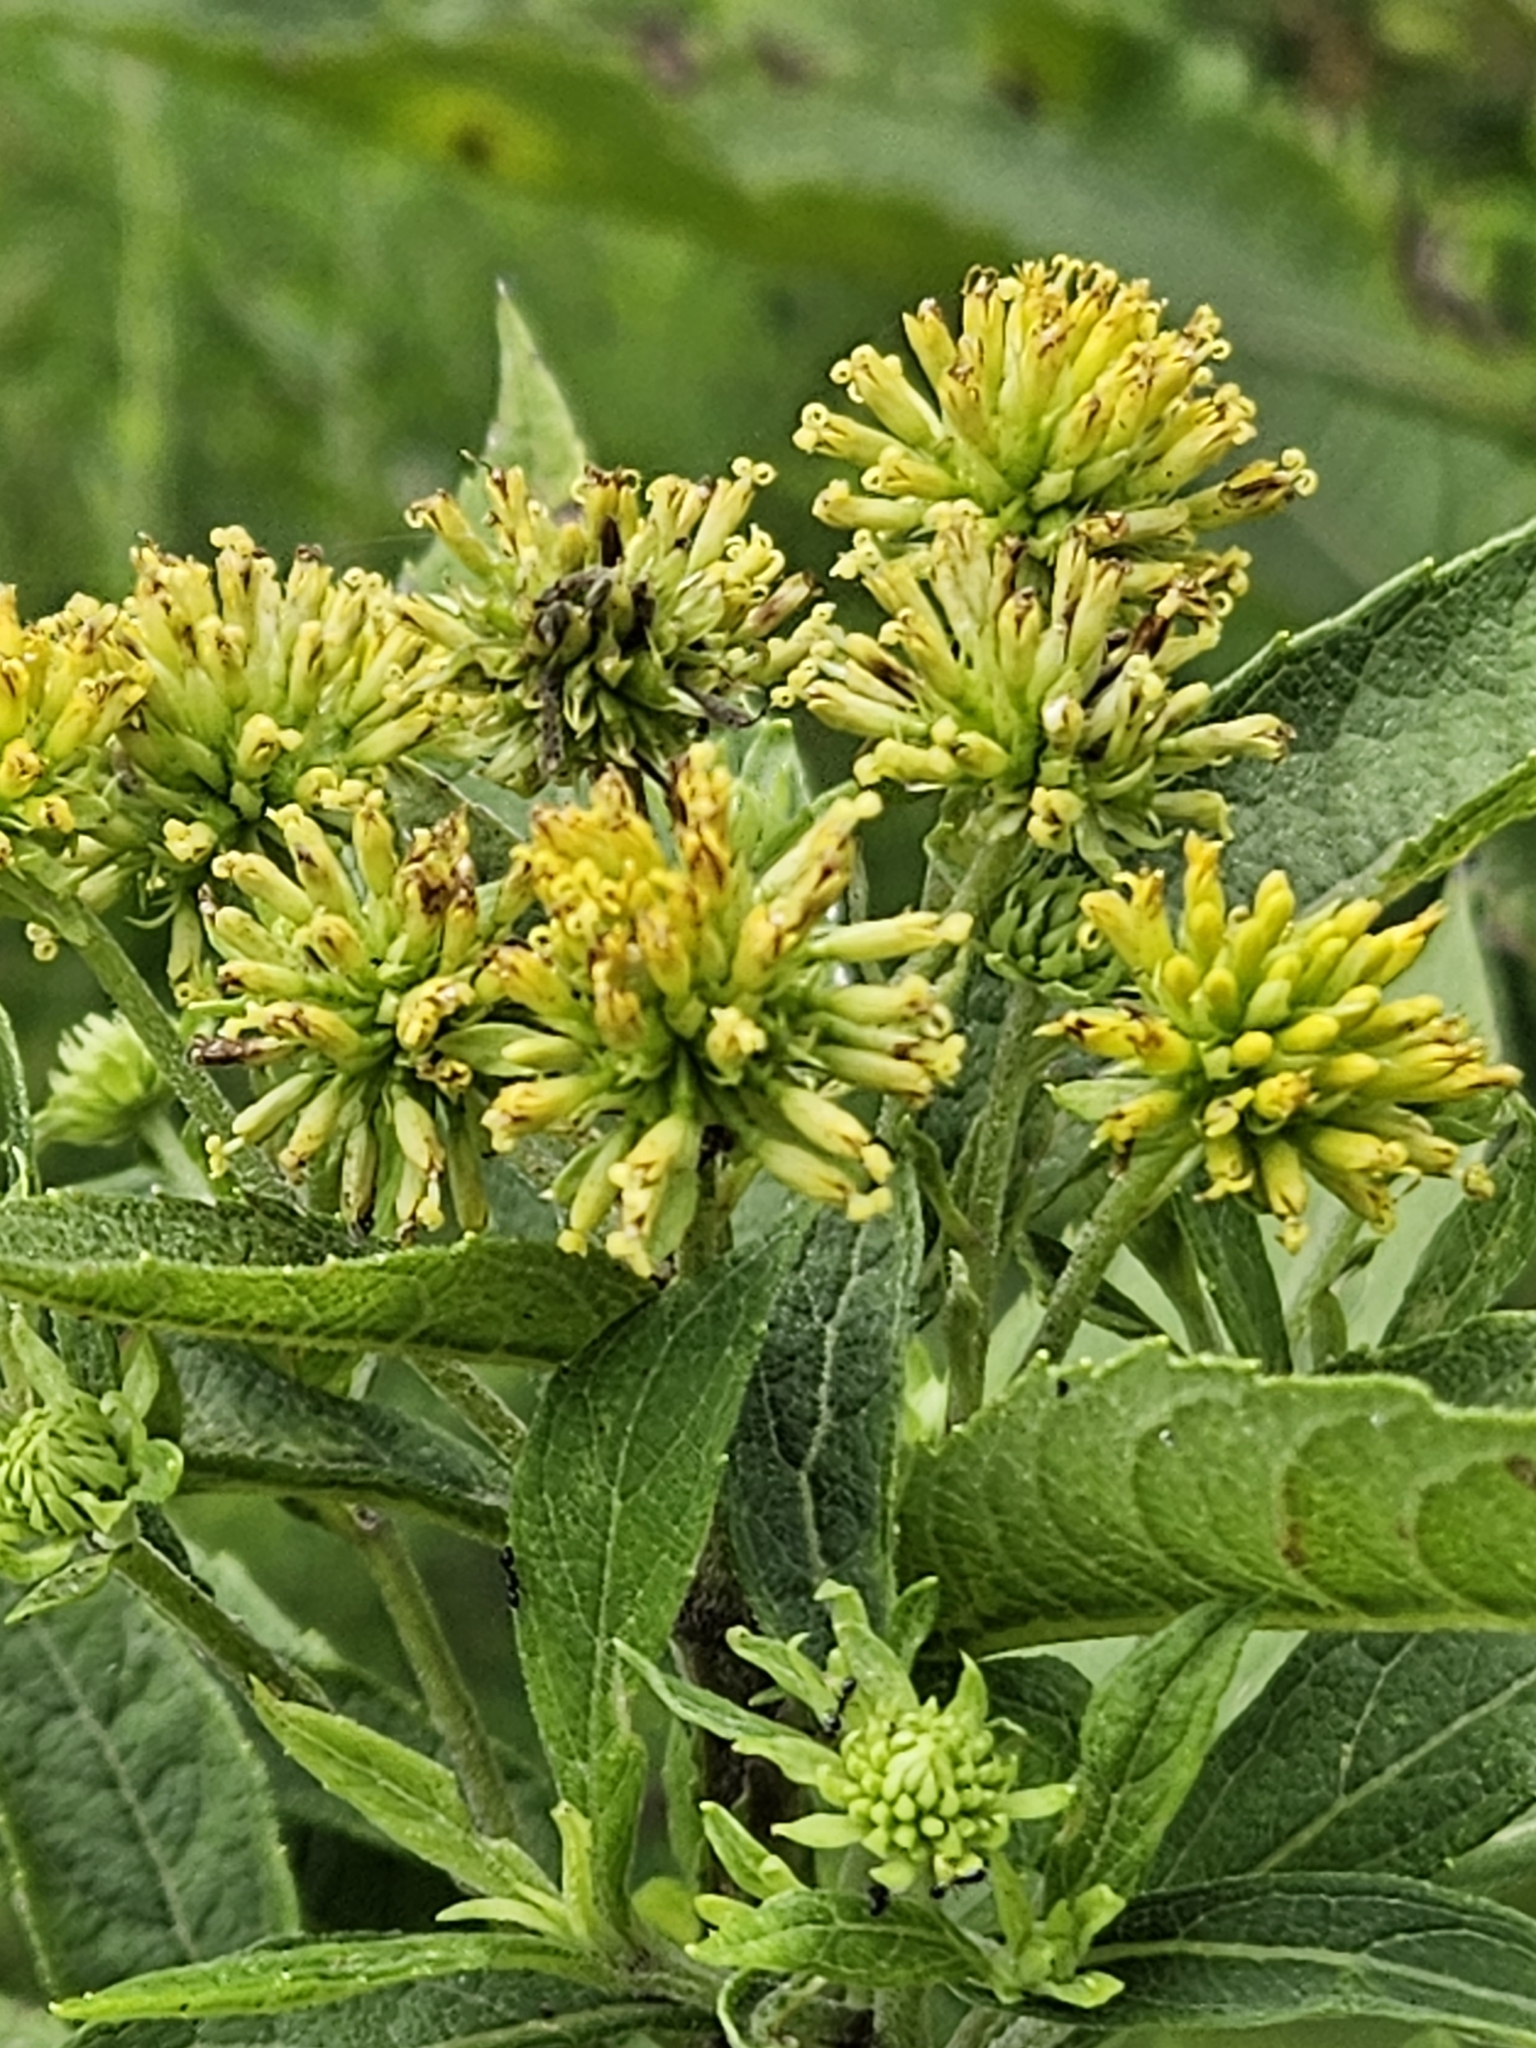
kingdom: Plantae
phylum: Tracheophyta
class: Magnoliopsida
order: Asterales
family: Asteraceae
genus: Verbesina
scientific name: Verbesina alternifolia
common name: Wingstem
